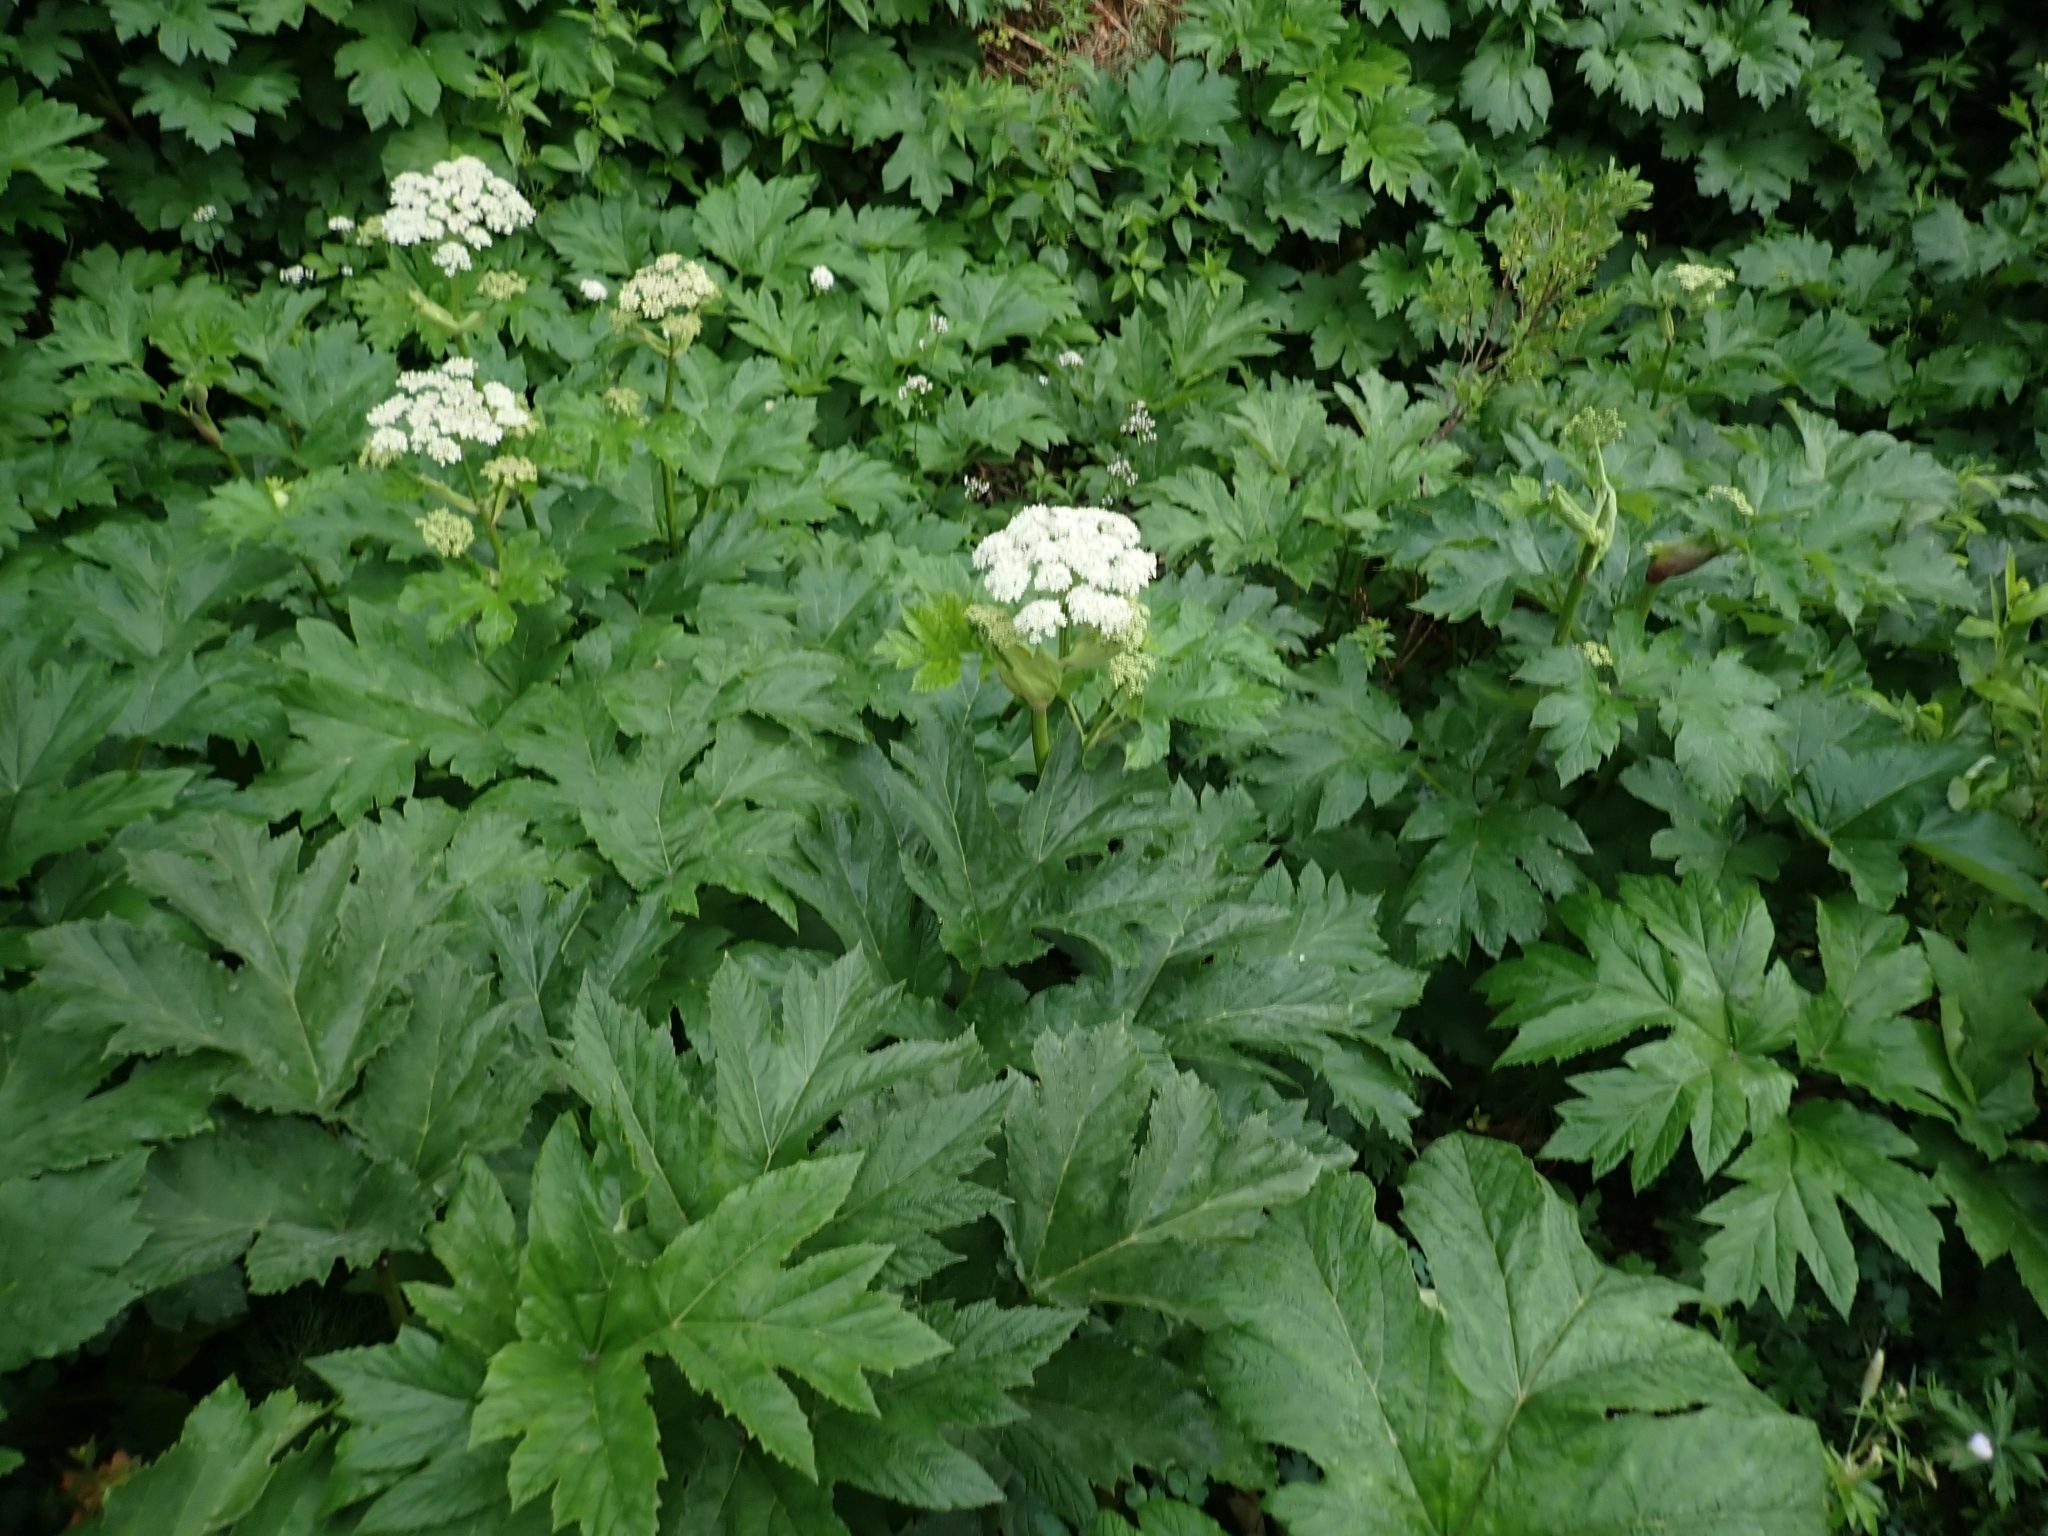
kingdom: Plantae
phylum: Tracheophyta
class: Magnoliopsida
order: Apiales
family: Apiaceae
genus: Heracleum
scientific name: Heracleum maximum
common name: American cow parsnip
